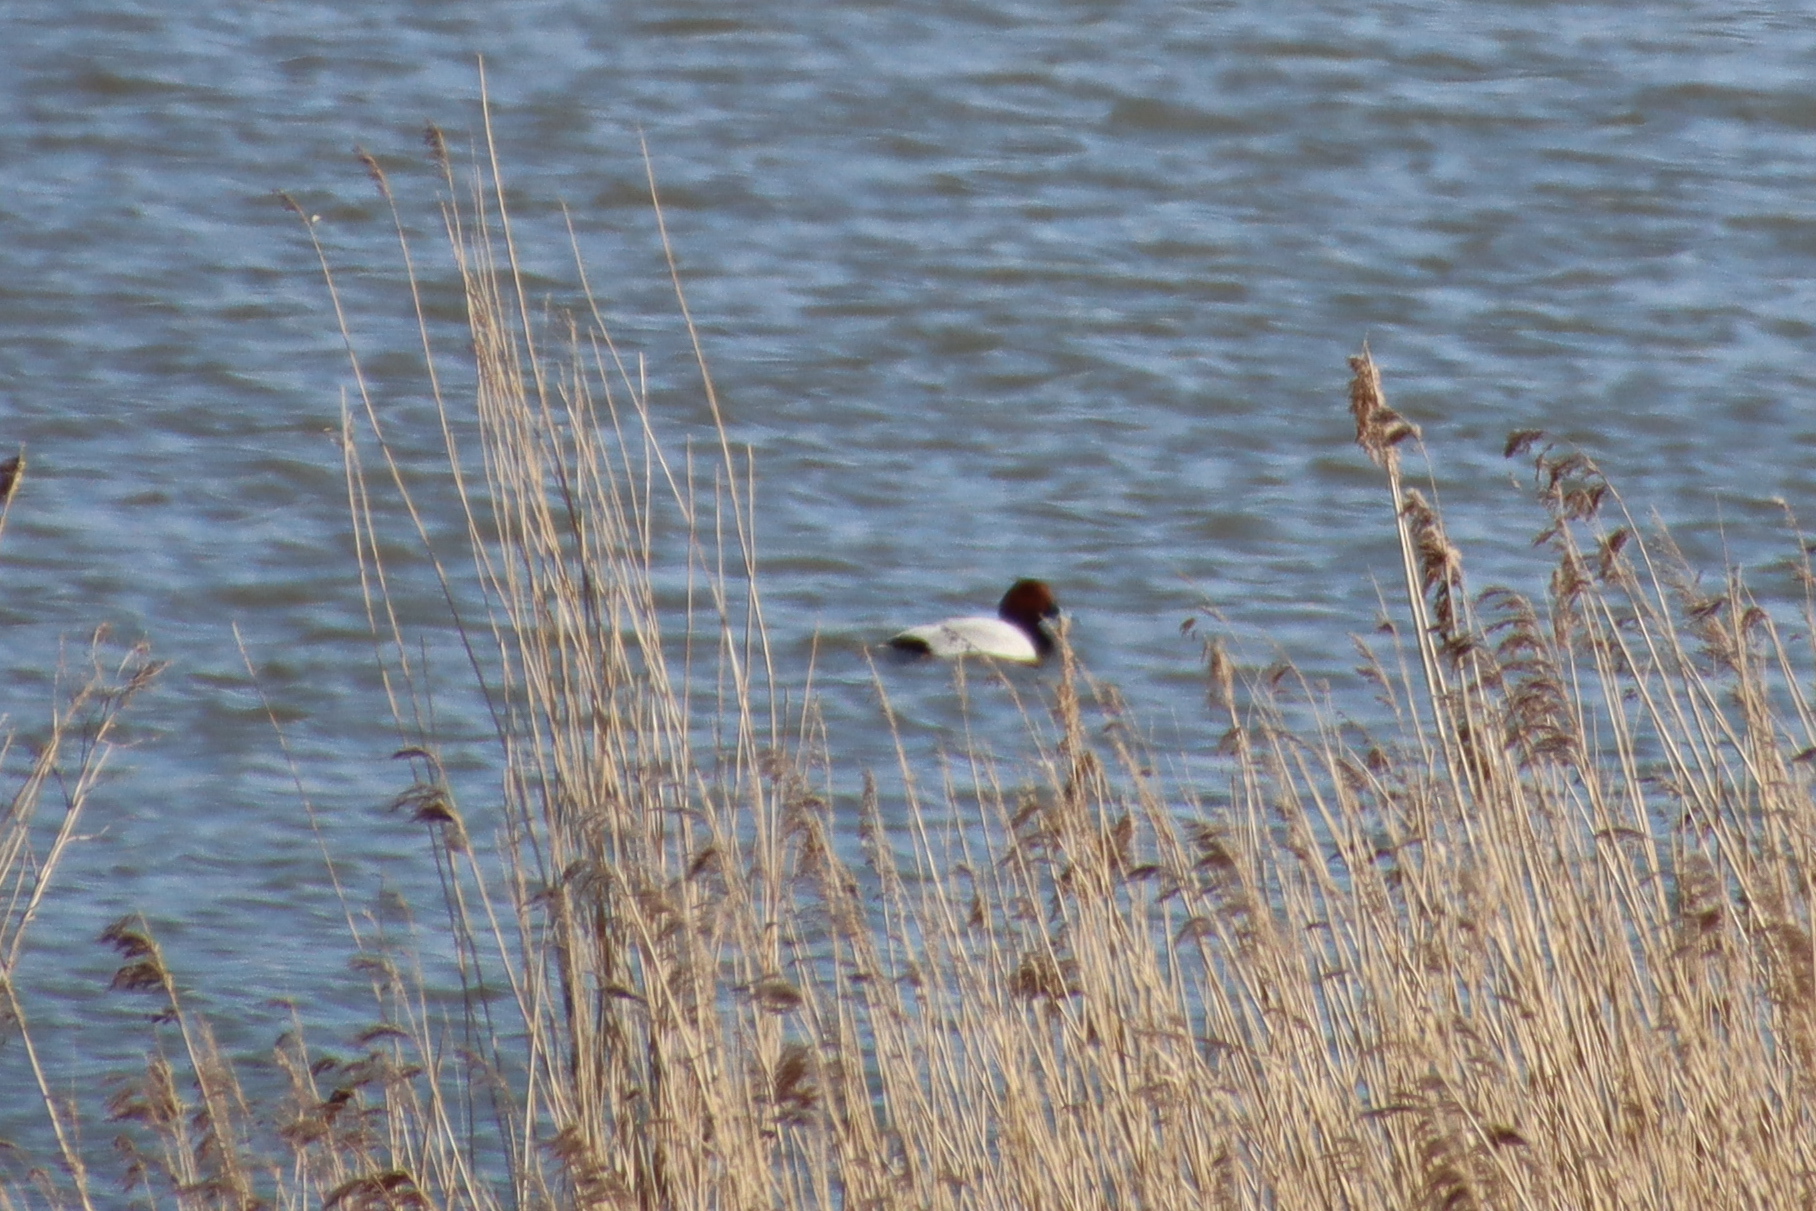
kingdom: Animalia
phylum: Chordata
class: Aves
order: Anseriformes
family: Anatidae
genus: Aythya
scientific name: Aythya ferina
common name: Common pochard
